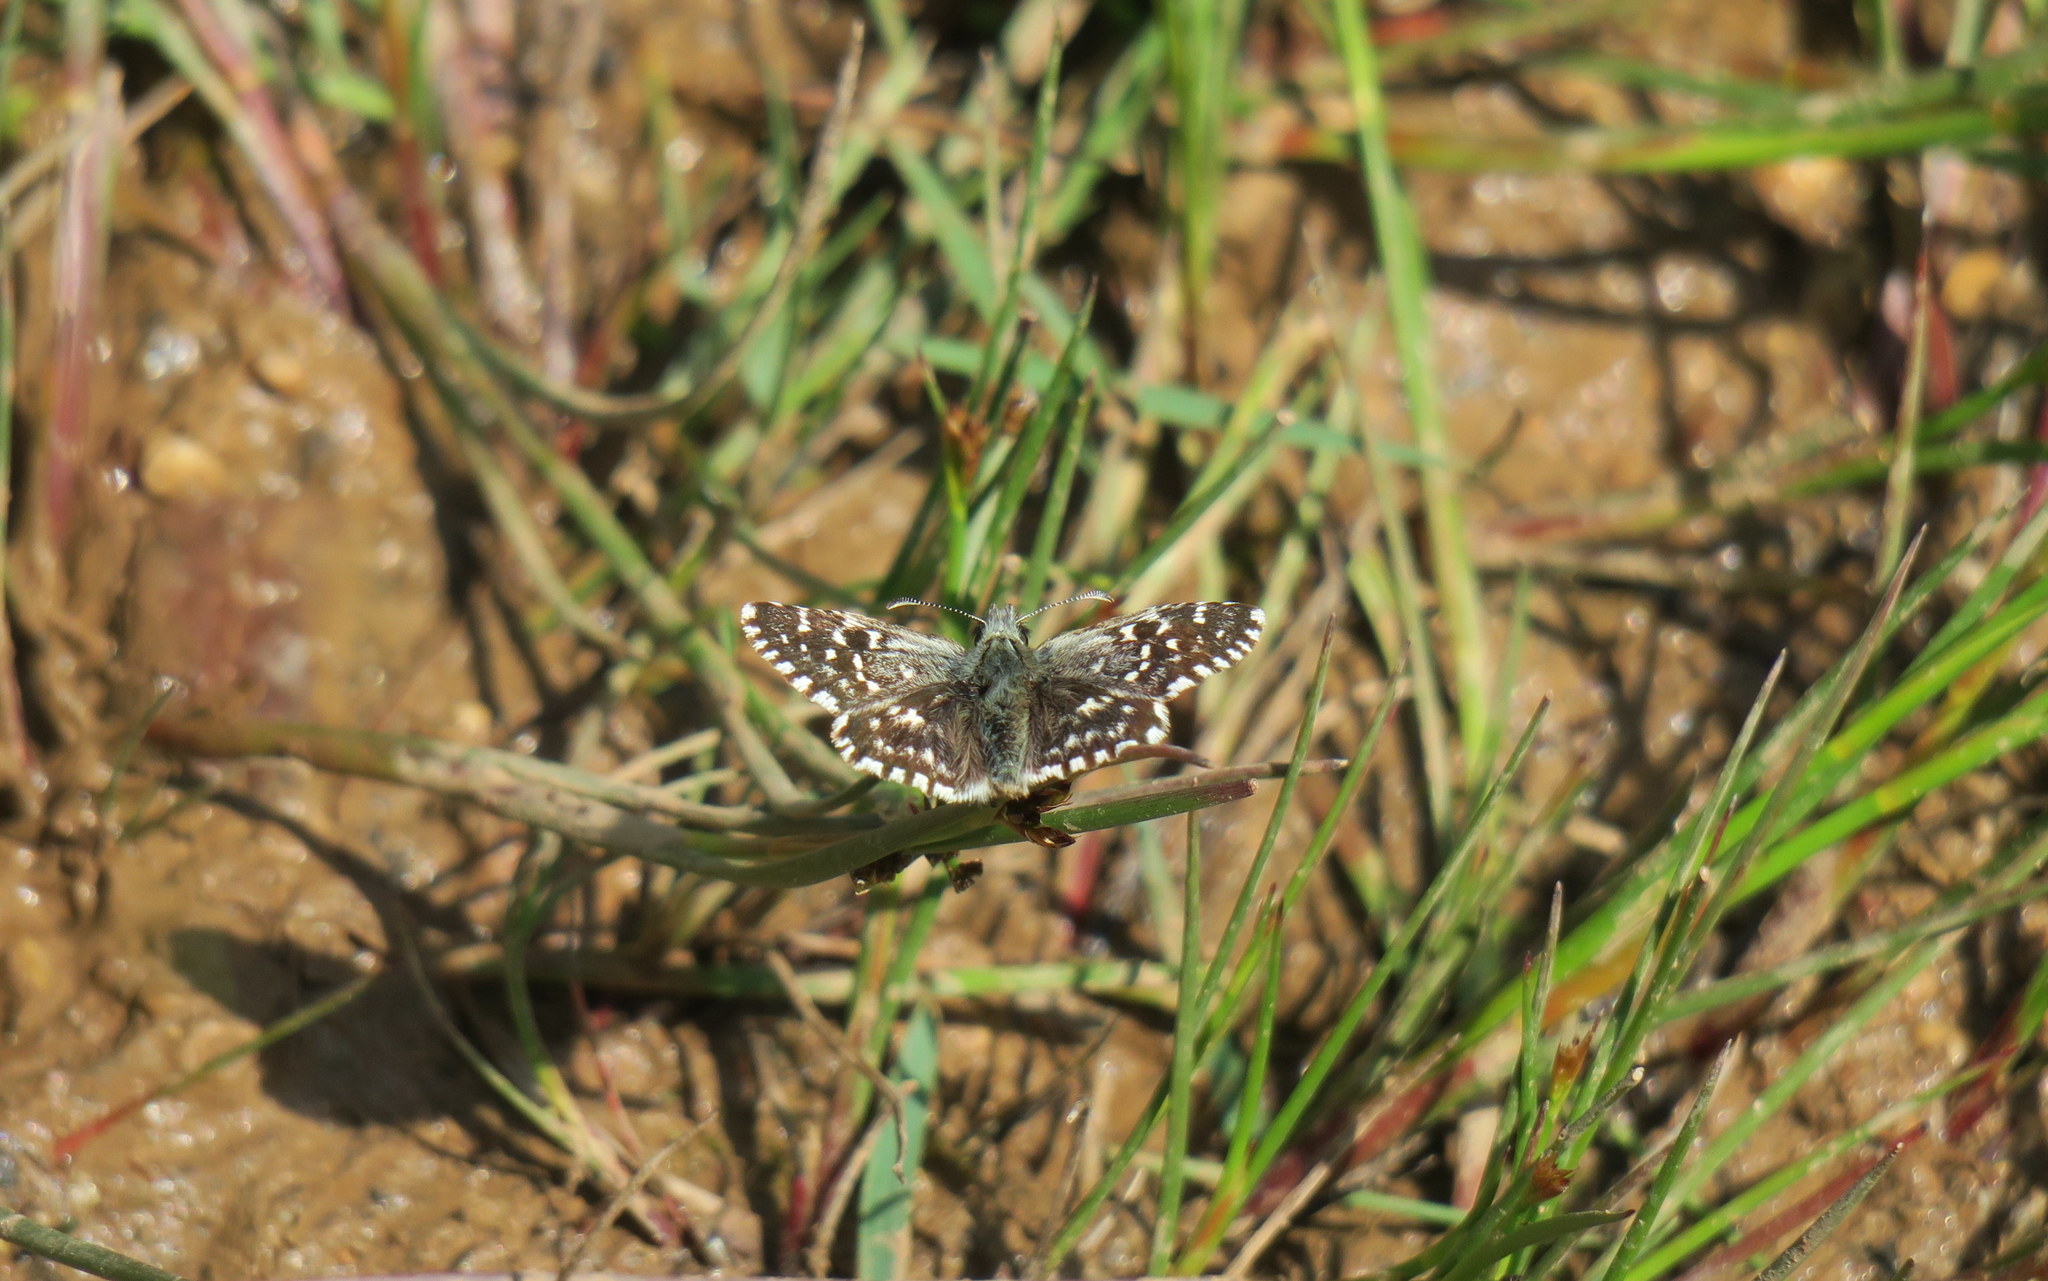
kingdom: Animalia
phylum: Arthropoda
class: Insecta
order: Lepidoptera
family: Hesperiidae
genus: Pyrgus
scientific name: Pyrgus malvae
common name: Grizzled skipper
